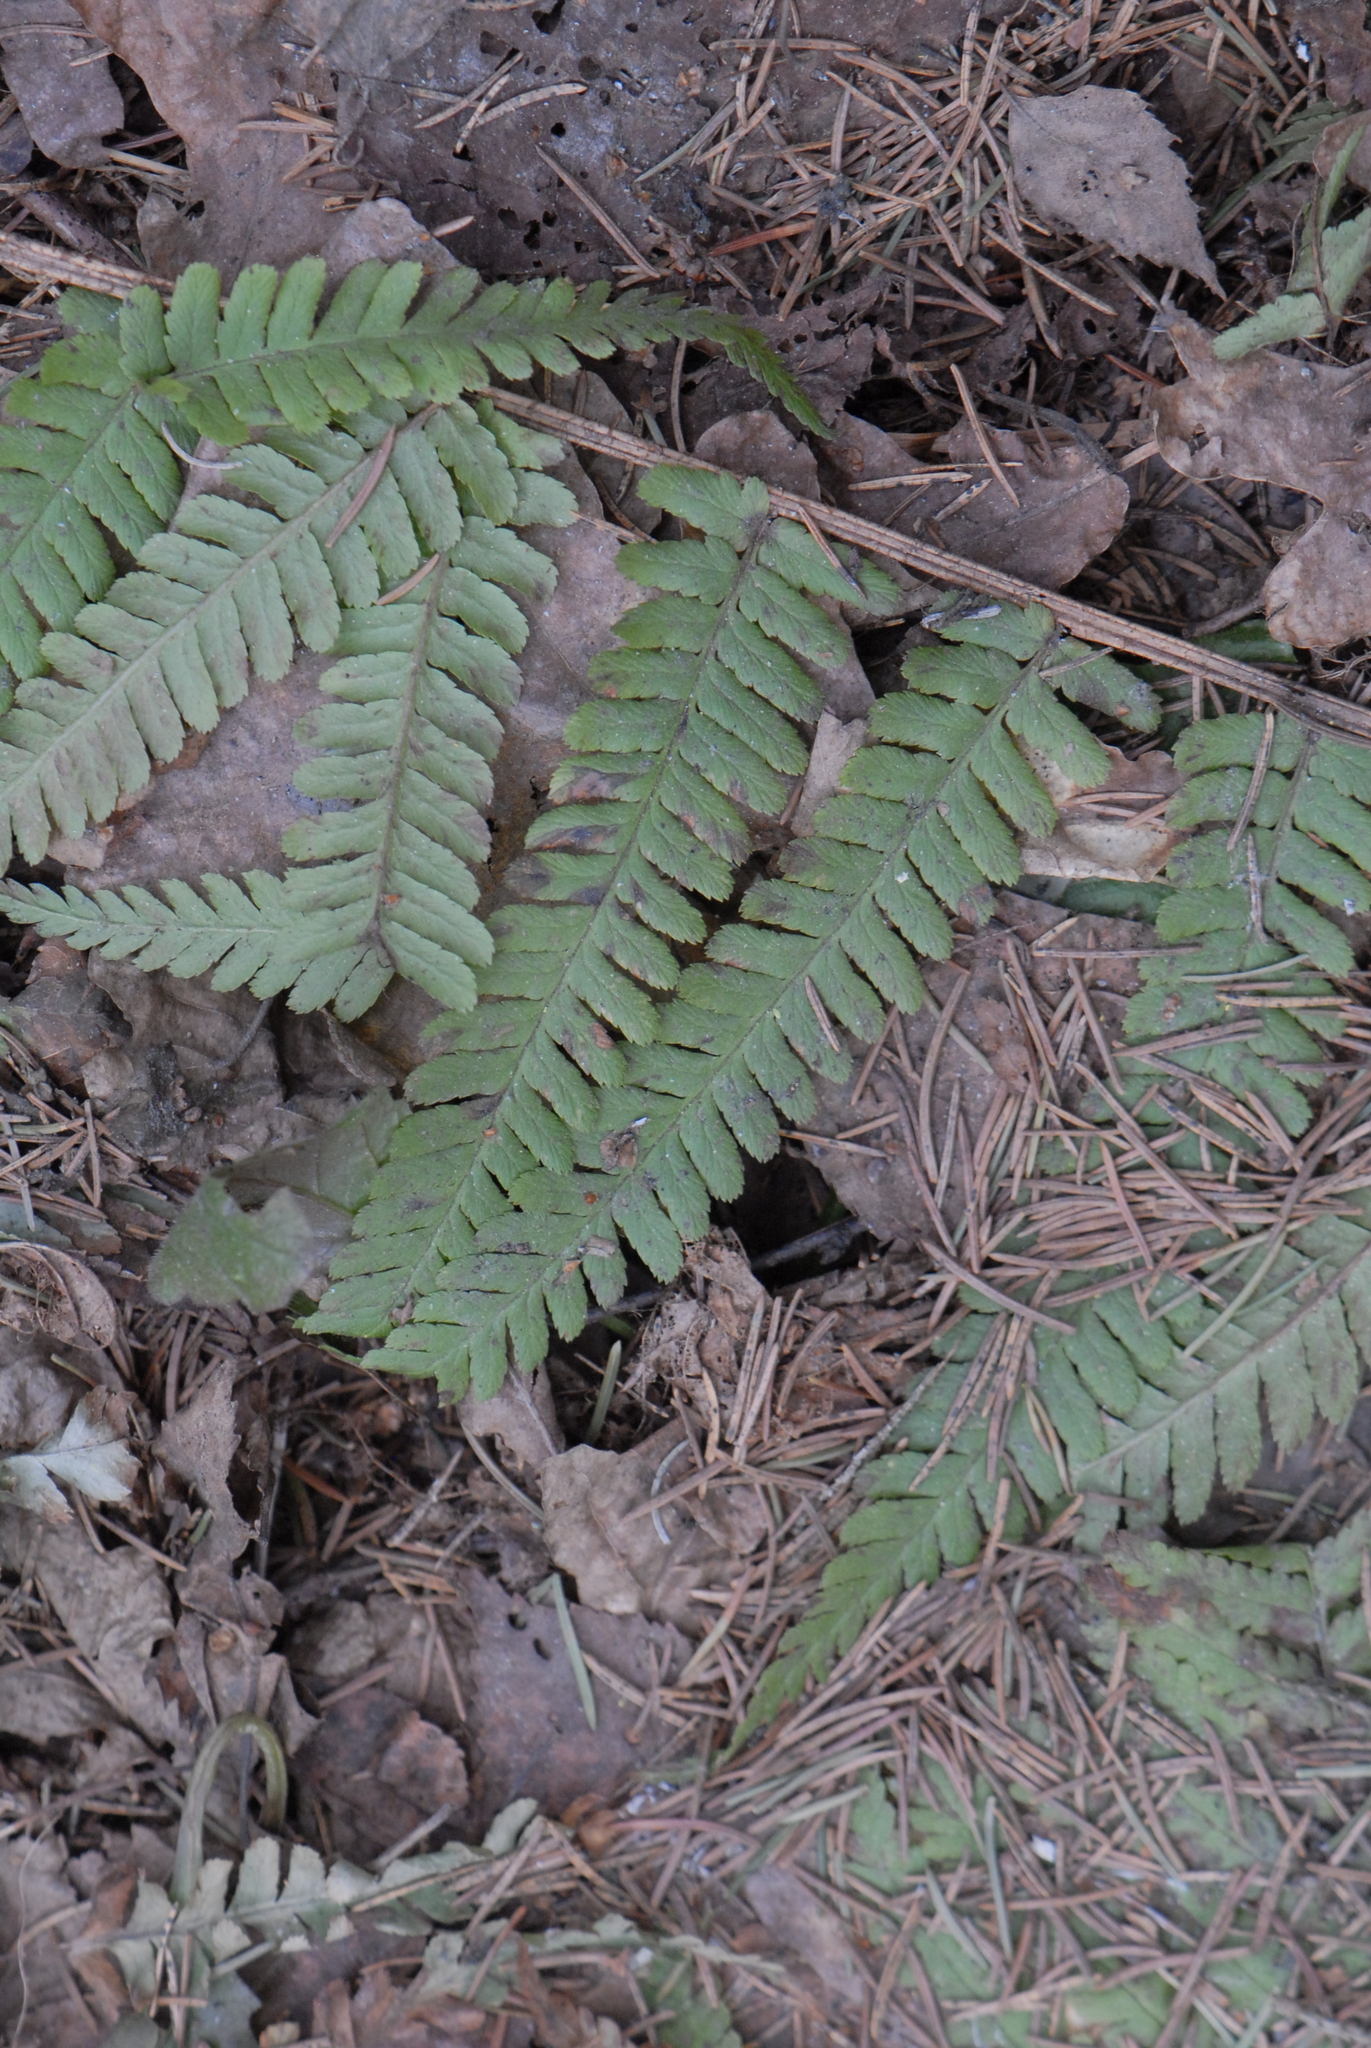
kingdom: Plantae
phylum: Tracheophyta
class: Polypodiopsida
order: Polypodiales
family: Dryopteridaceae
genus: Dryopteris
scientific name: Dryopteris filix-mas
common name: Male fern
